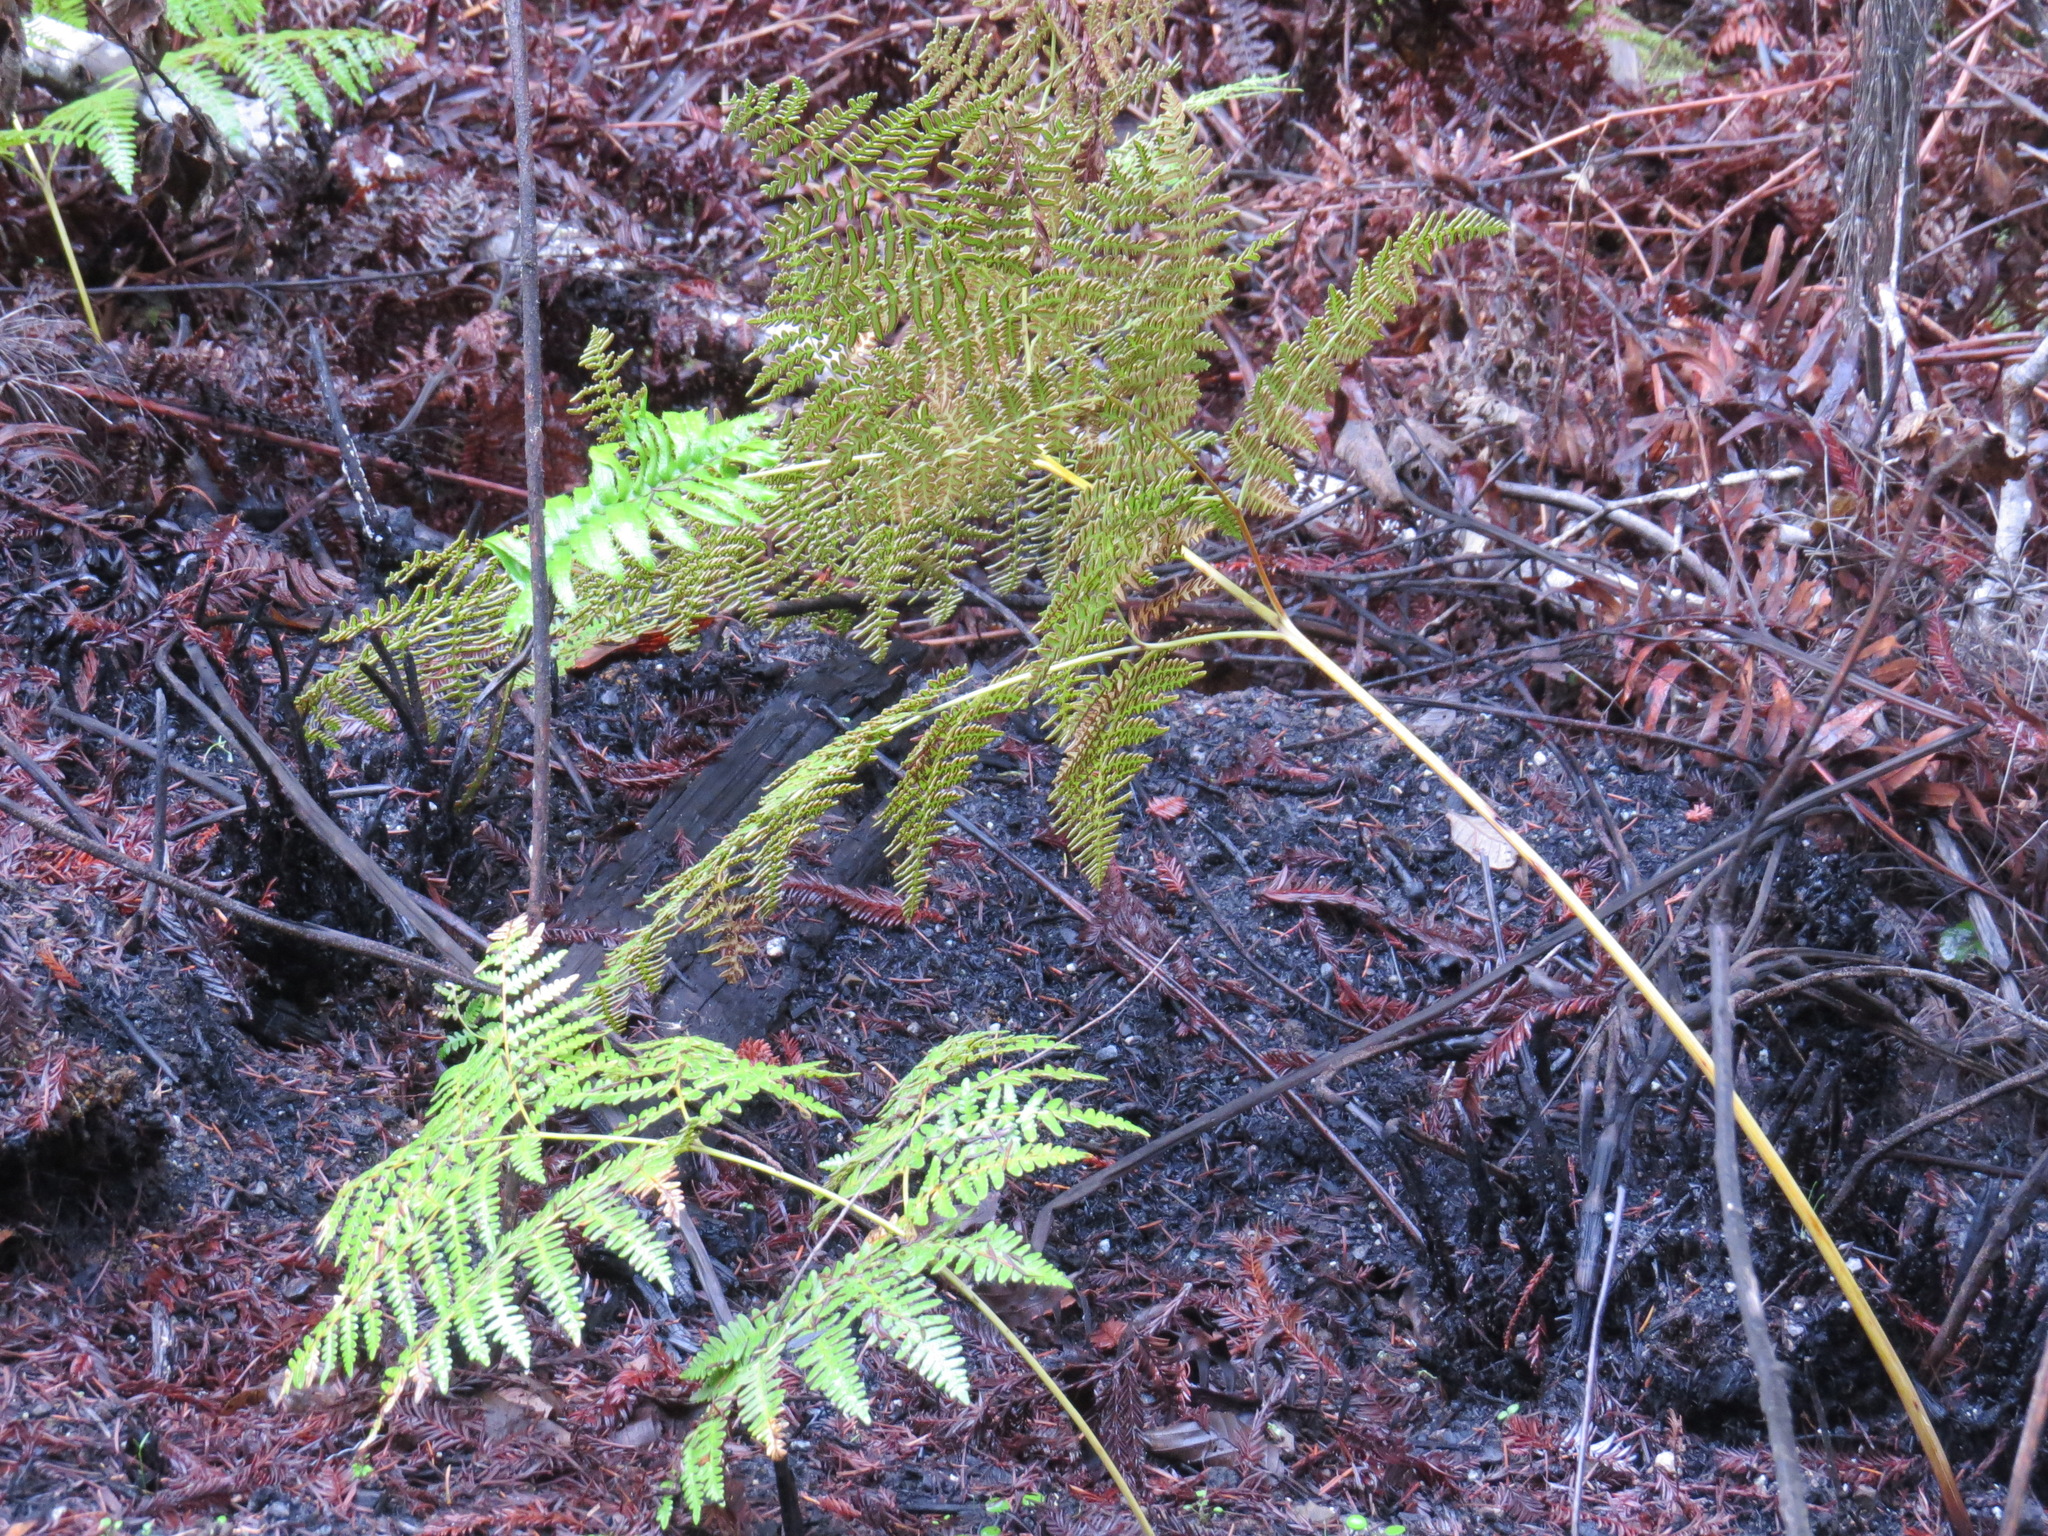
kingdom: Plantae
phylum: Tracheophyta
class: Polypodiopsida
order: Polypodiales
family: Dennstaedtiaceae
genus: Pteridium
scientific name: Pteridium aquilinum
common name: Bracken
